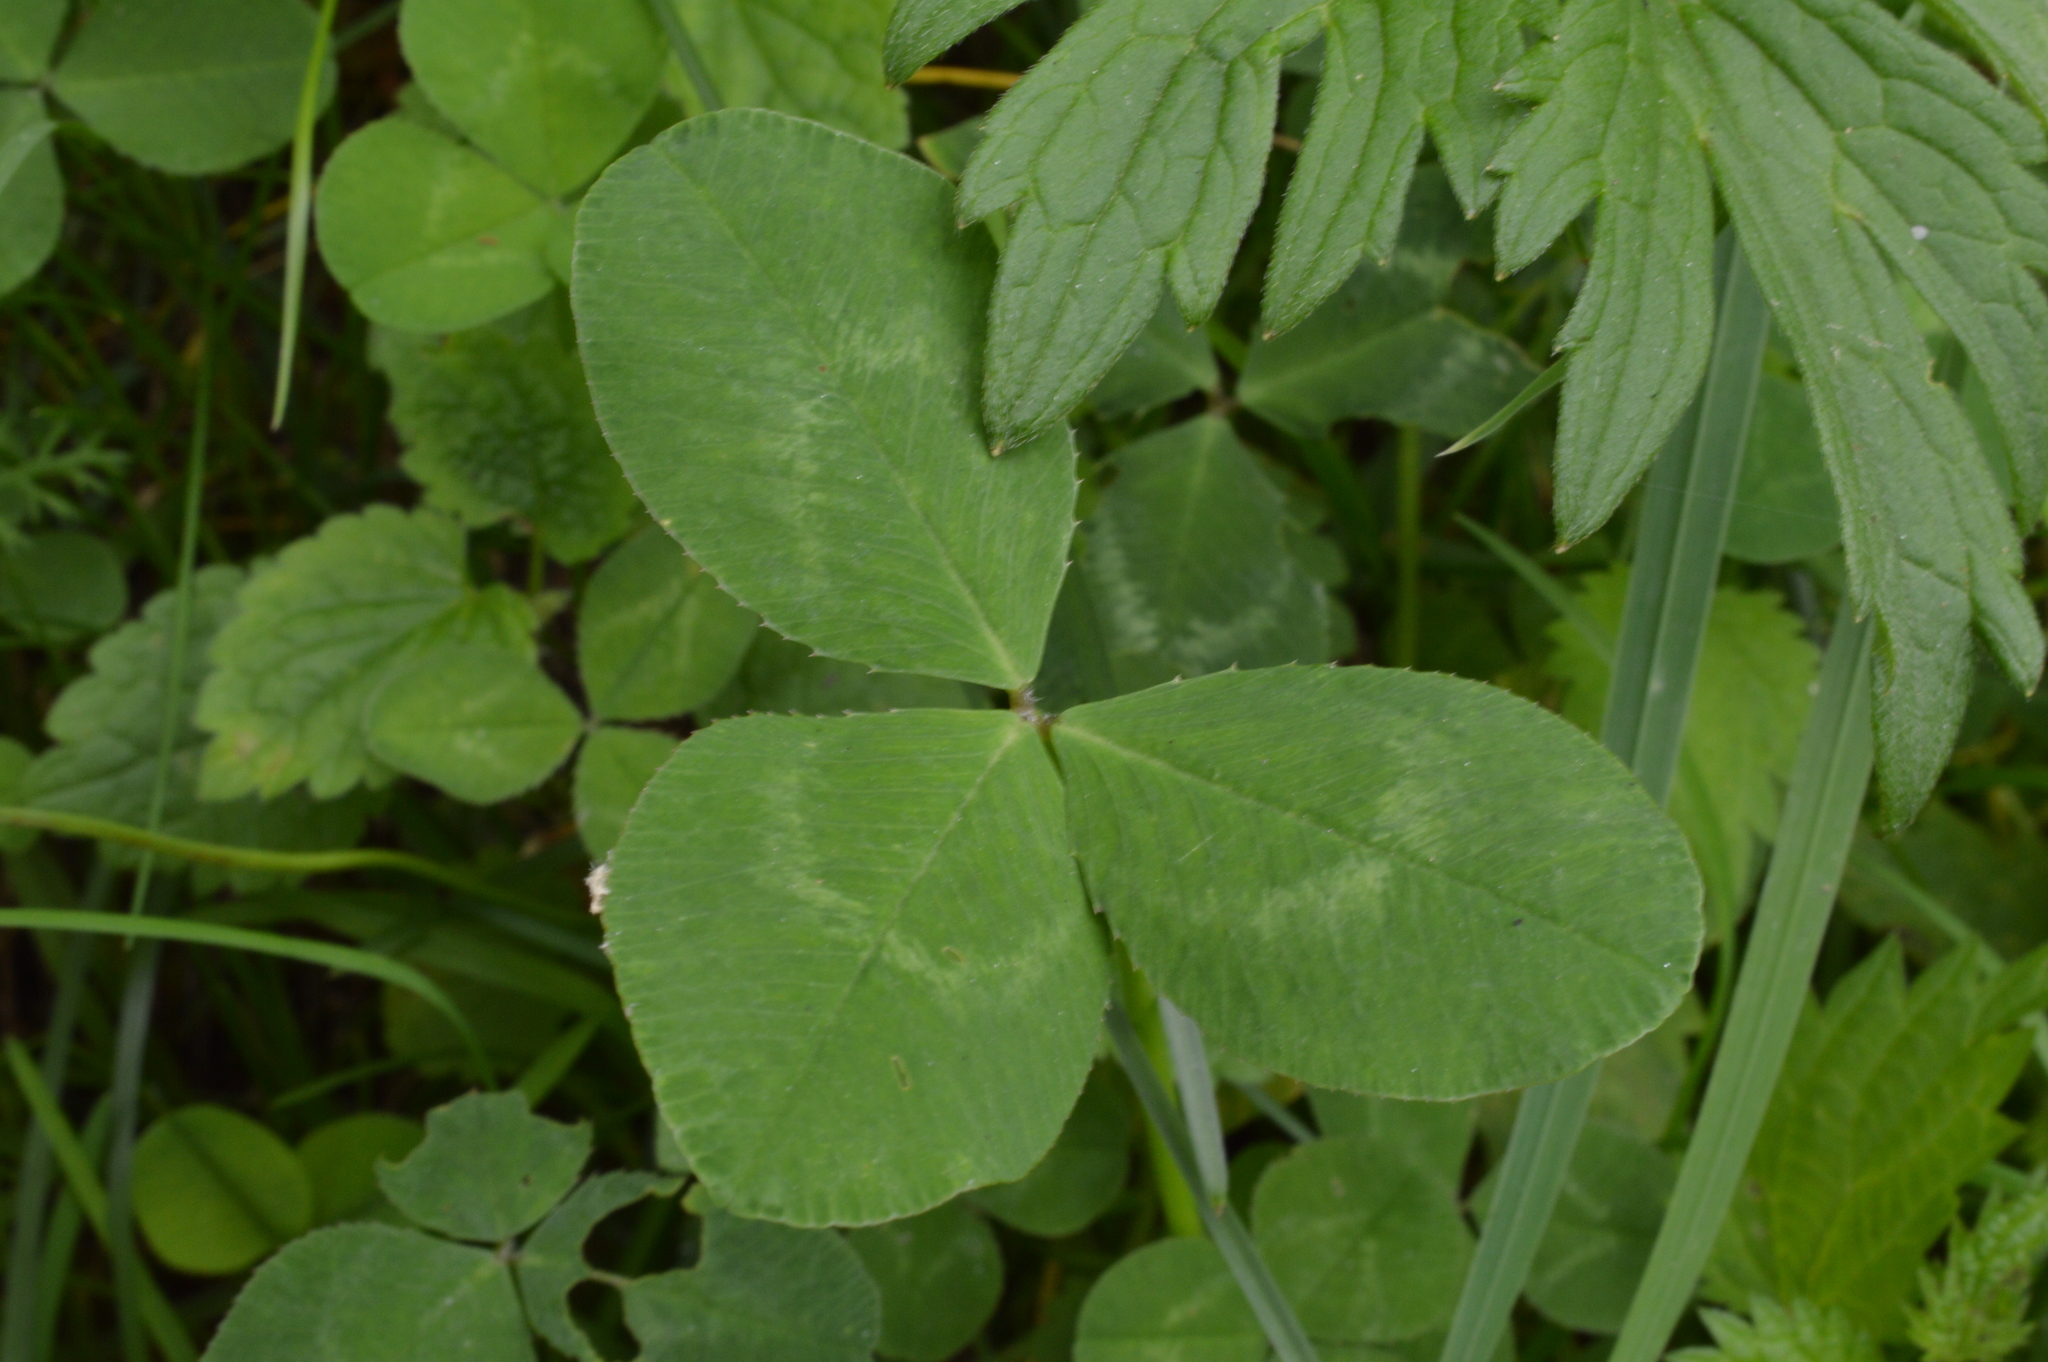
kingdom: Plantae
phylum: Tracheophyta
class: Magnoliopsida
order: Fabales
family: Fabaceae
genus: Trifolium
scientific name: Trifolium repens
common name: White clover
